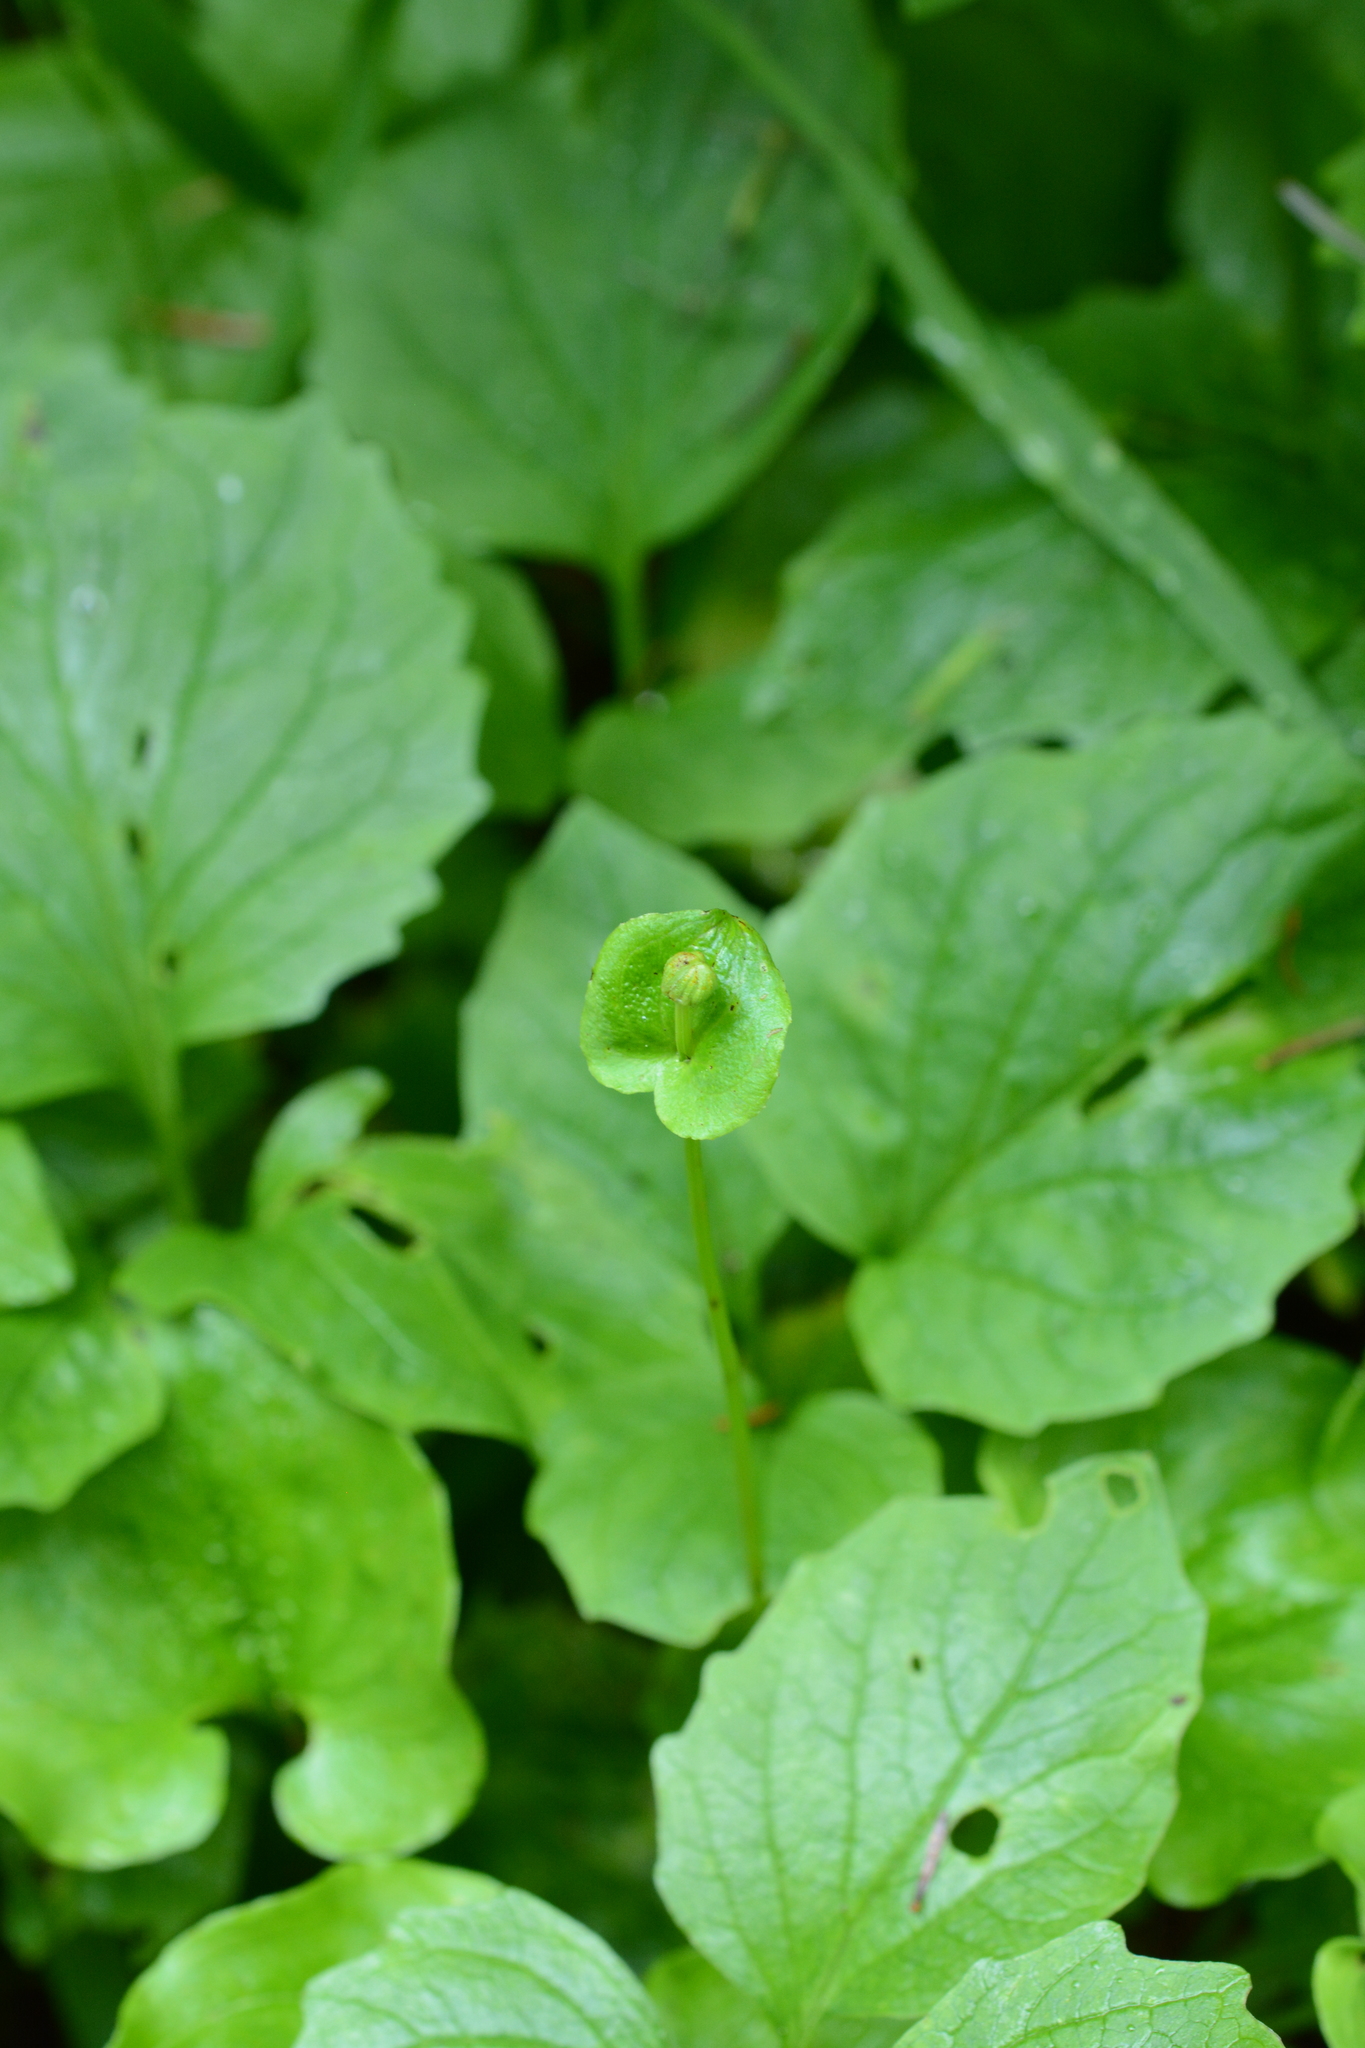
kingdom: Plantae
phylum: Tracheophyta
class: Magnoliopsida
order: Celastrales
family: Parnassiaceae
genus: Parnassia
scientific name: Parnassia fimbriata
